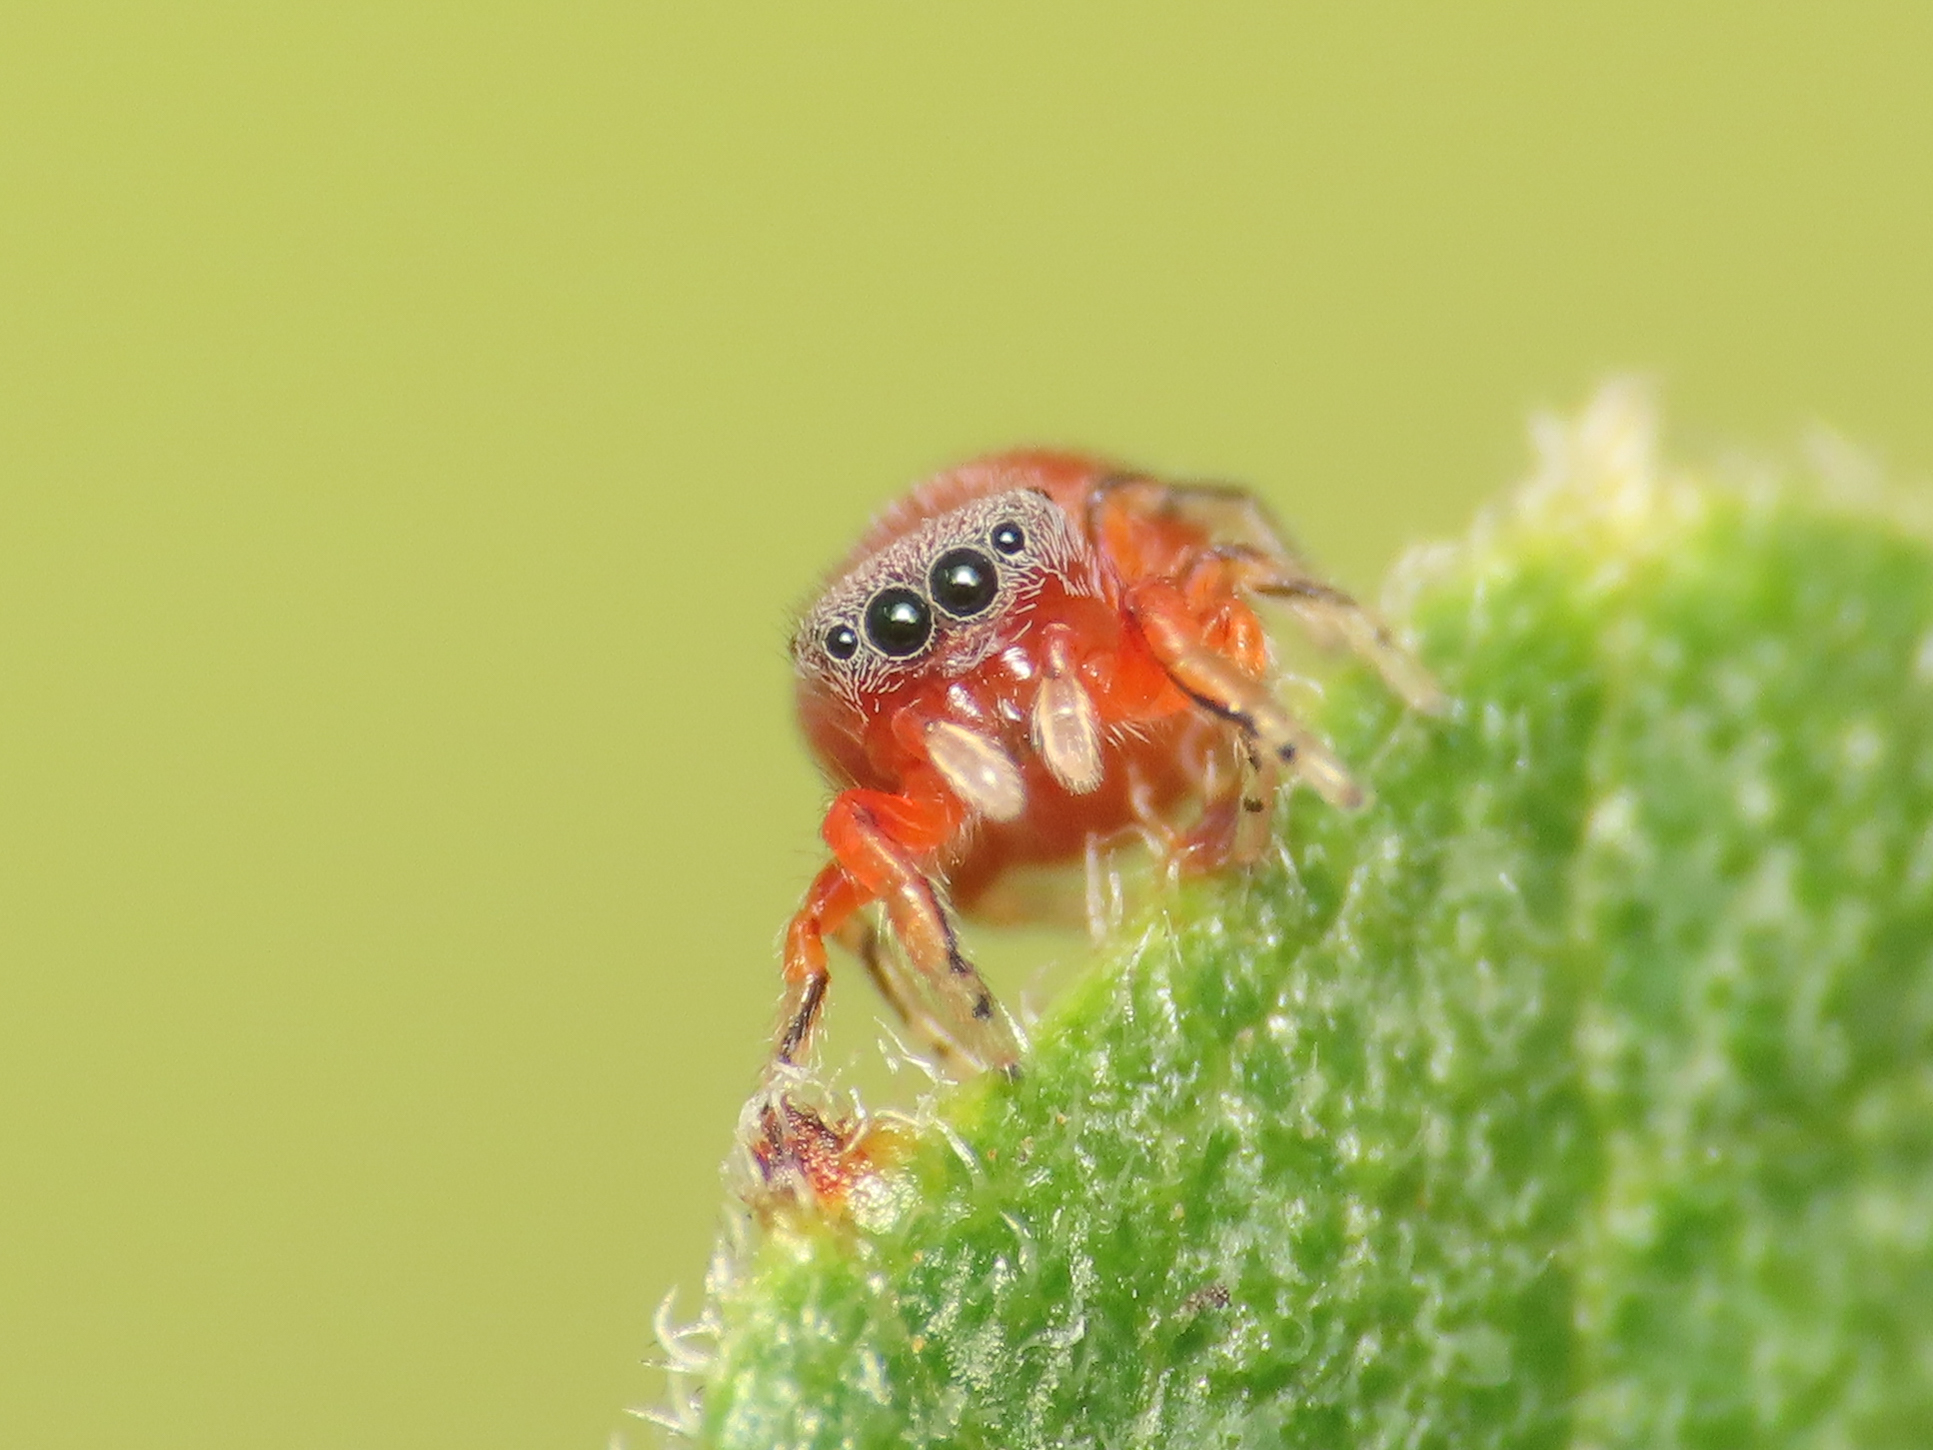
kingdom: Animalia
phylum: Arthropoda
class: Arachnida
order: Araneae
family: Salticidae
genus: Ballus
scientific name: Ballus rufipes
